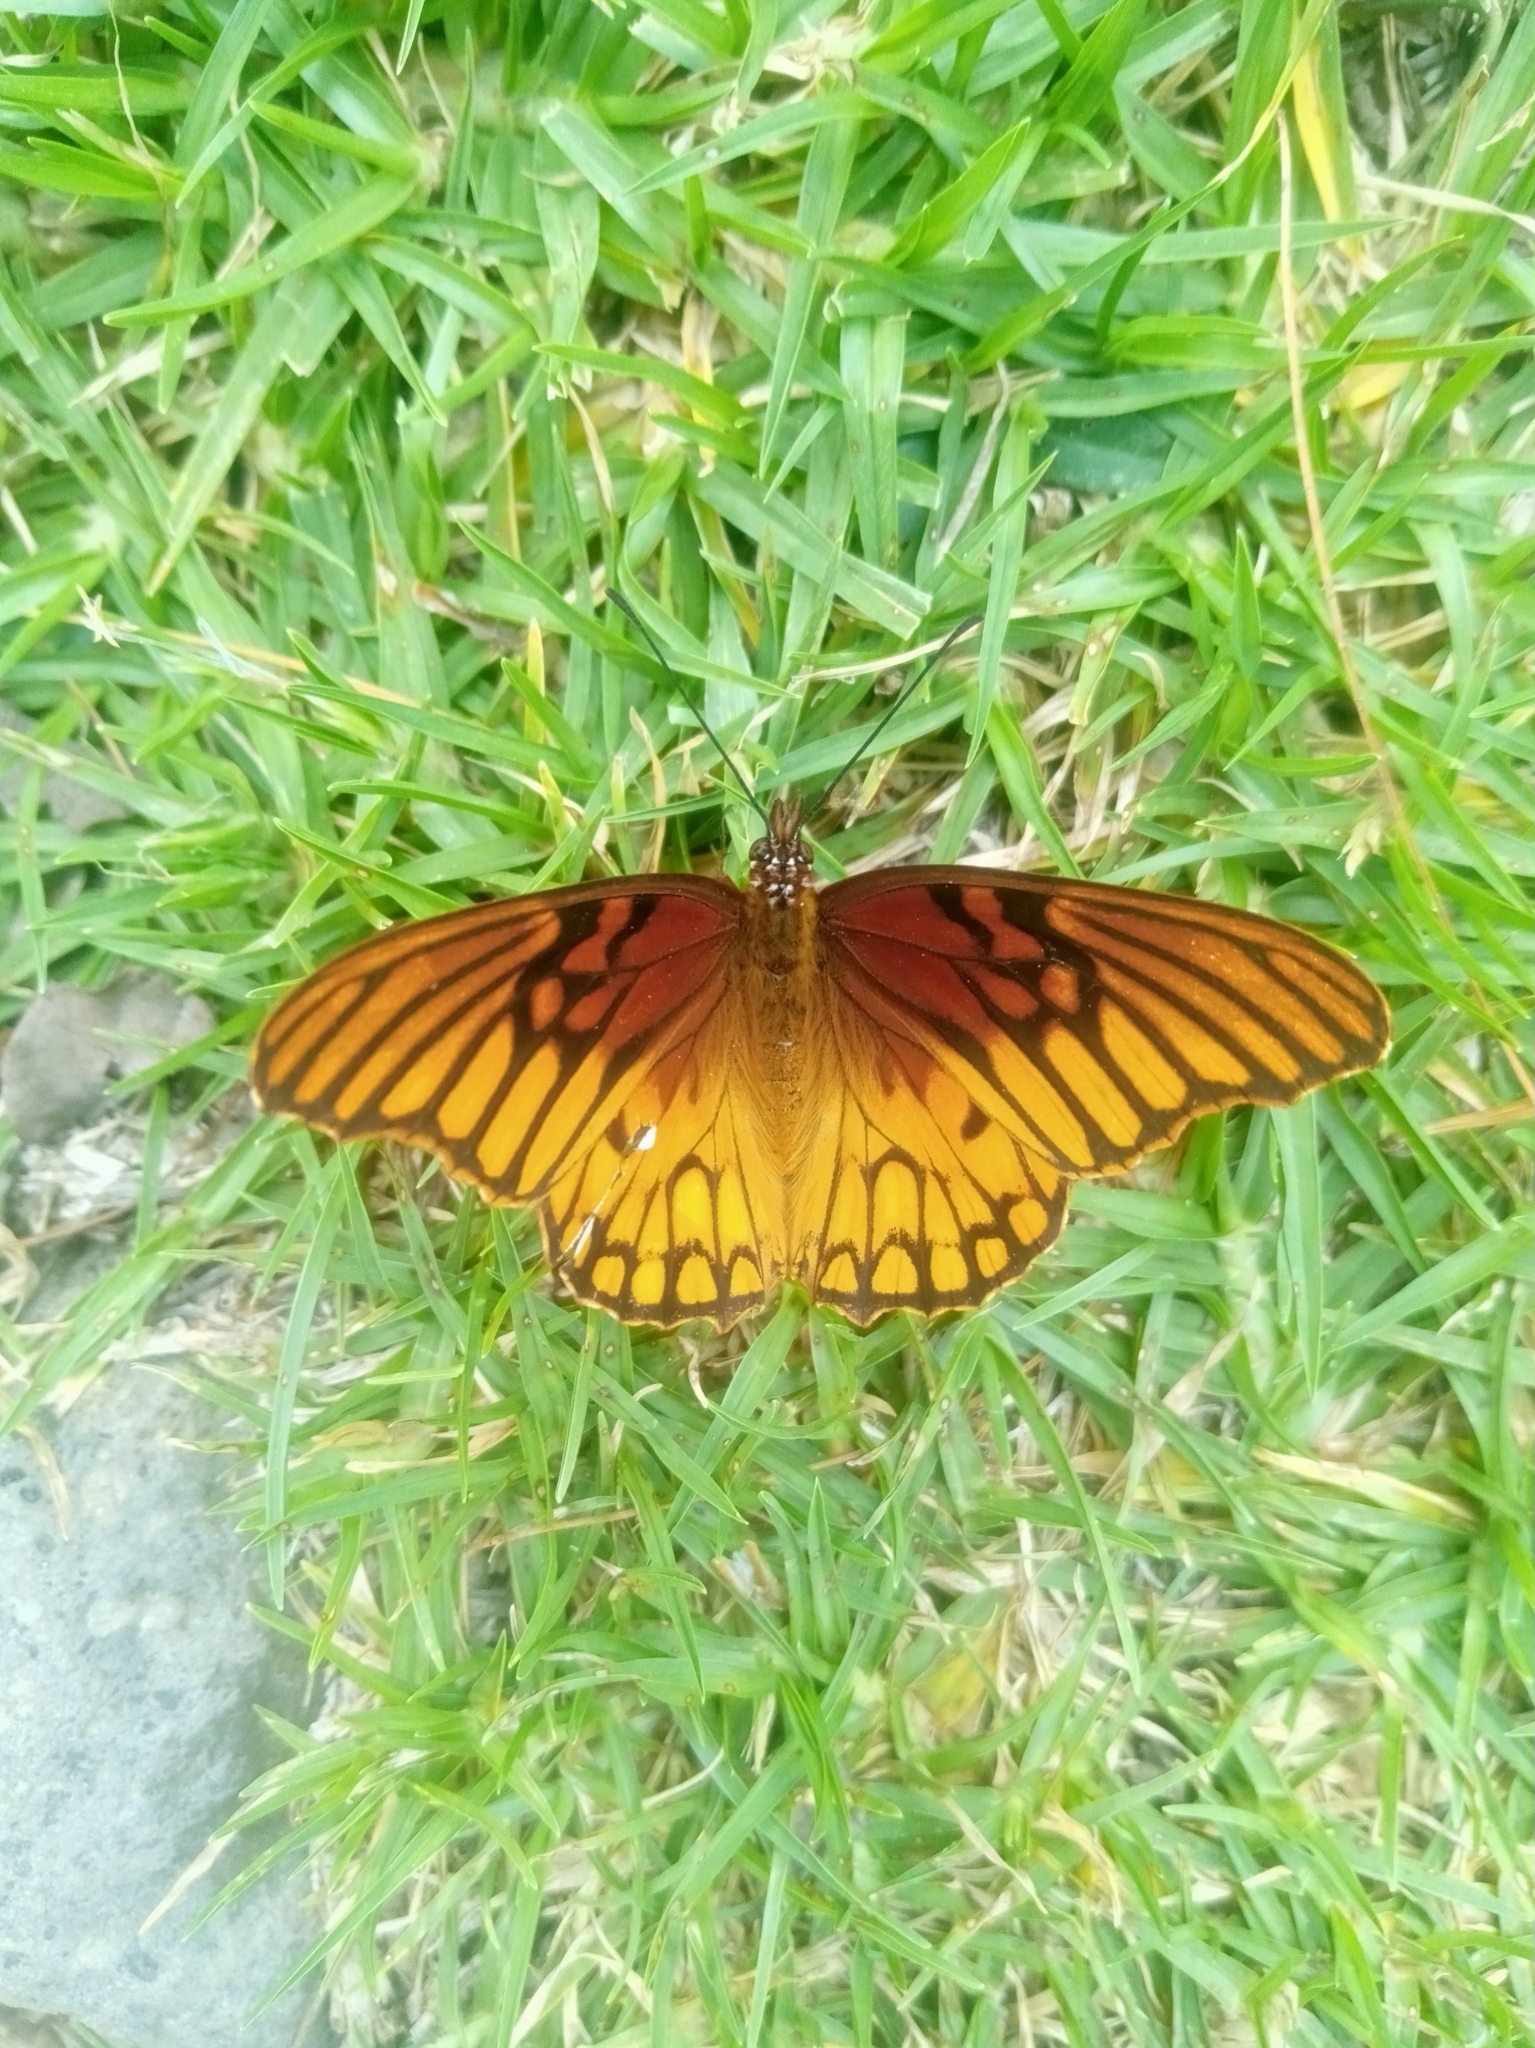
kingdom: Animalia
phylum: Arthropoda
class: Insecta
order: Lepidoptera
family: Nymphalidae
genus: Dione
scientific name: Dione moneta
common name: Mexican silverspot
